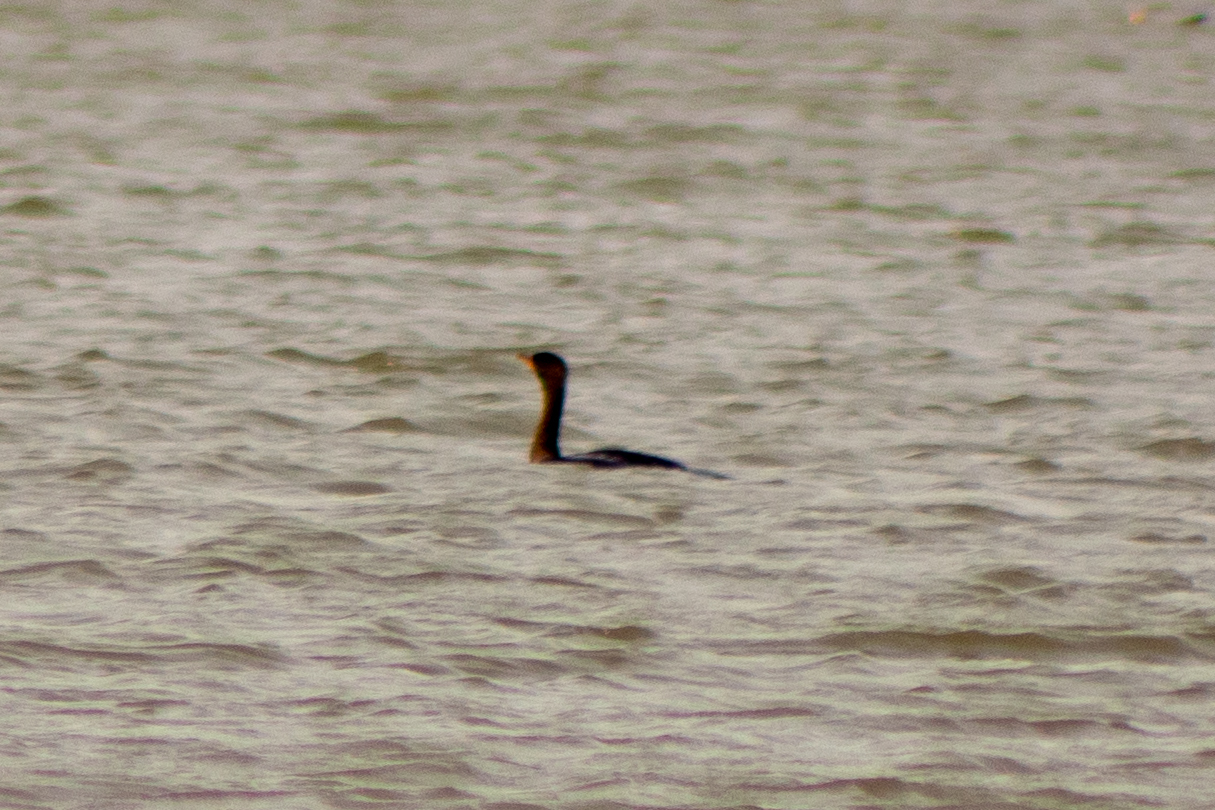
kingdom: Animalia
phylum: Chordata
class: Aves
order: Suliformes
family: Phalacrocoracidae
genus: Phalacrocorax
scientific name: Phalacrocorax auritus
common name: Double-crested cormorant
